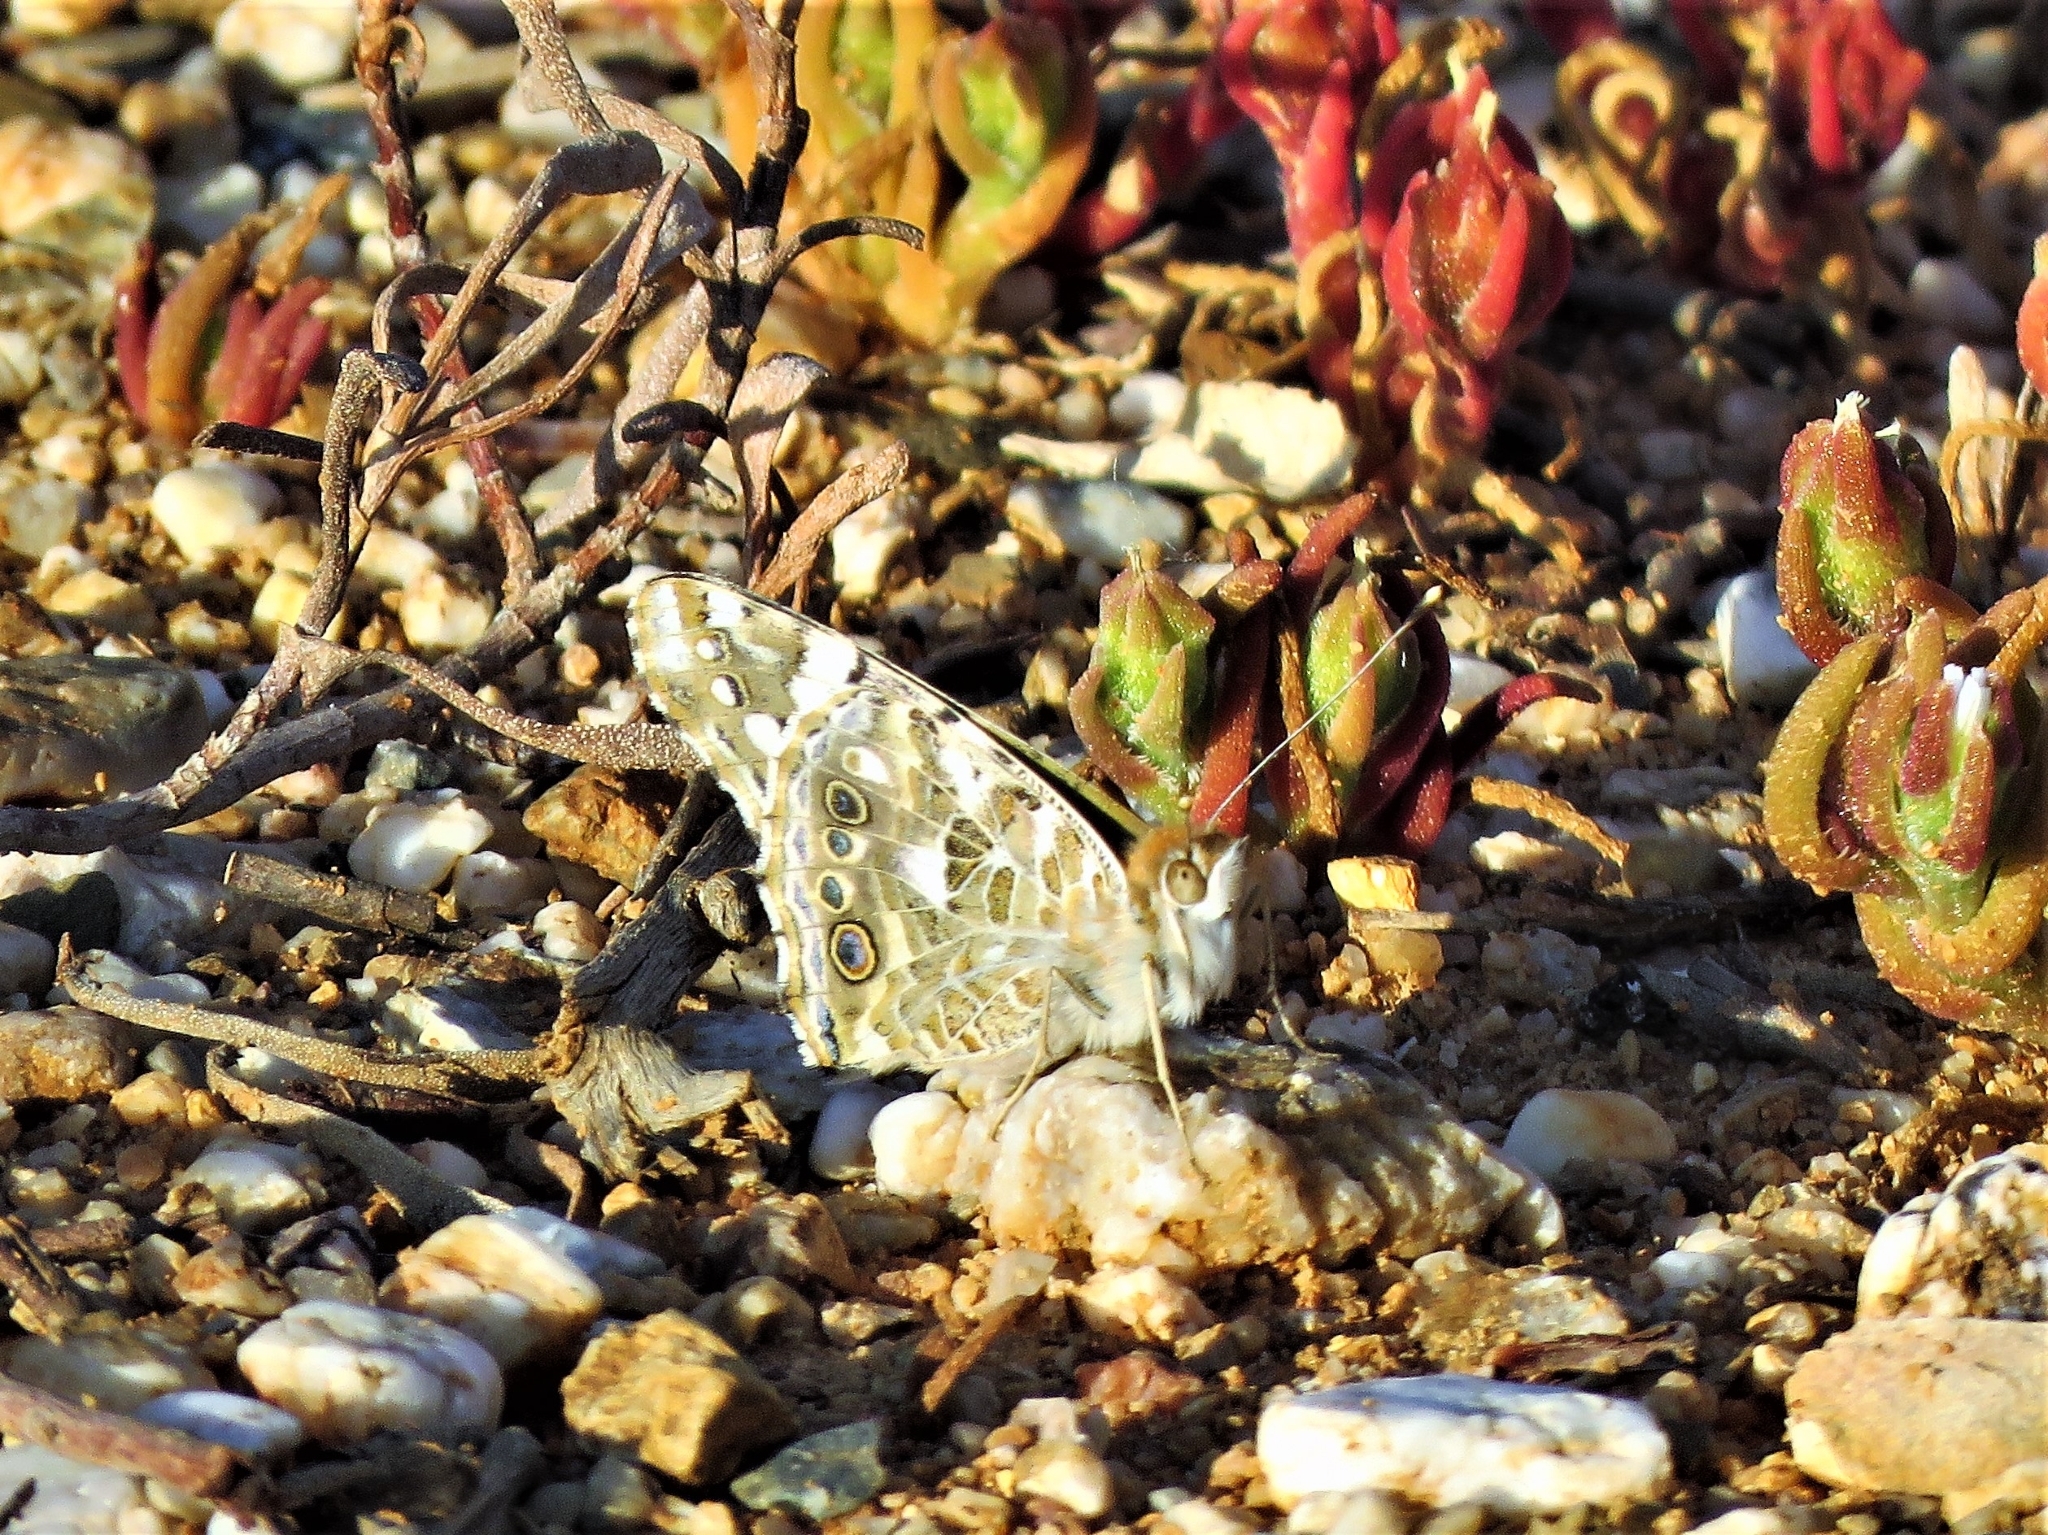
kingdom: Animalia
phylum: Arthropoda
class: Insecta
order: Lepidoptera
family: Nymphalidae
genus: Vanessa
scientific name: Vanessa cardui
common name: Painted lady
